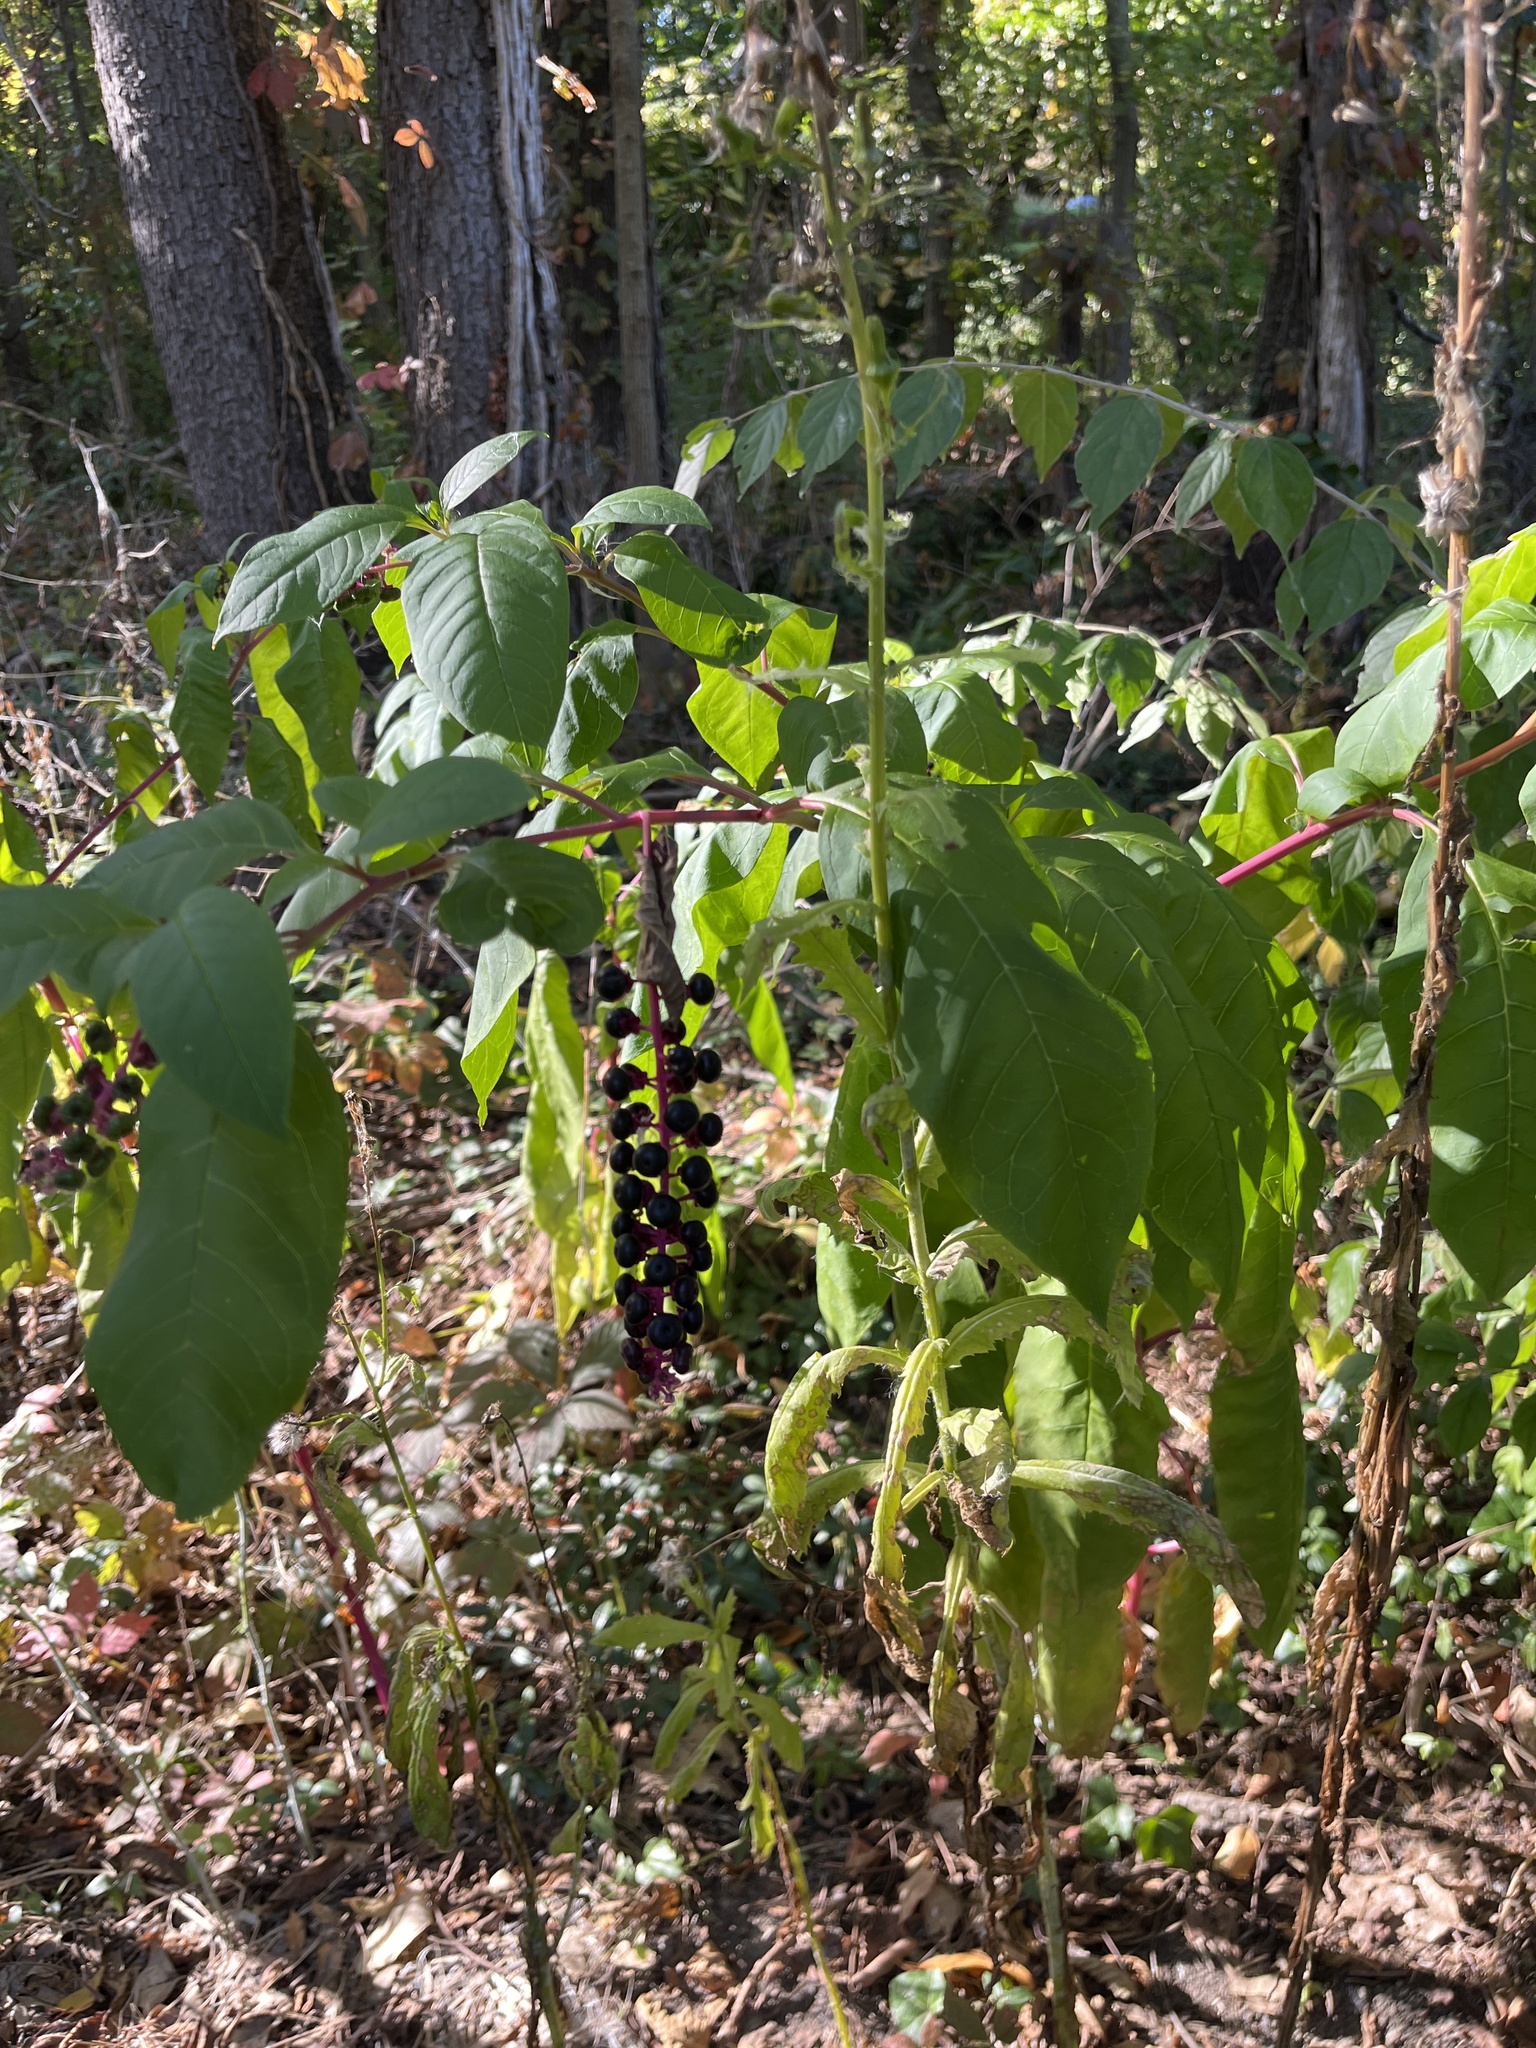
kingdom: Plantae
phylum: Tracheophyta
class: Magnoliopsida
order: Caryophyllales
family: Phytolaccaceae
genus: Phytolacca
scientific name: Phytolacca americana
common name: American pokeweed
